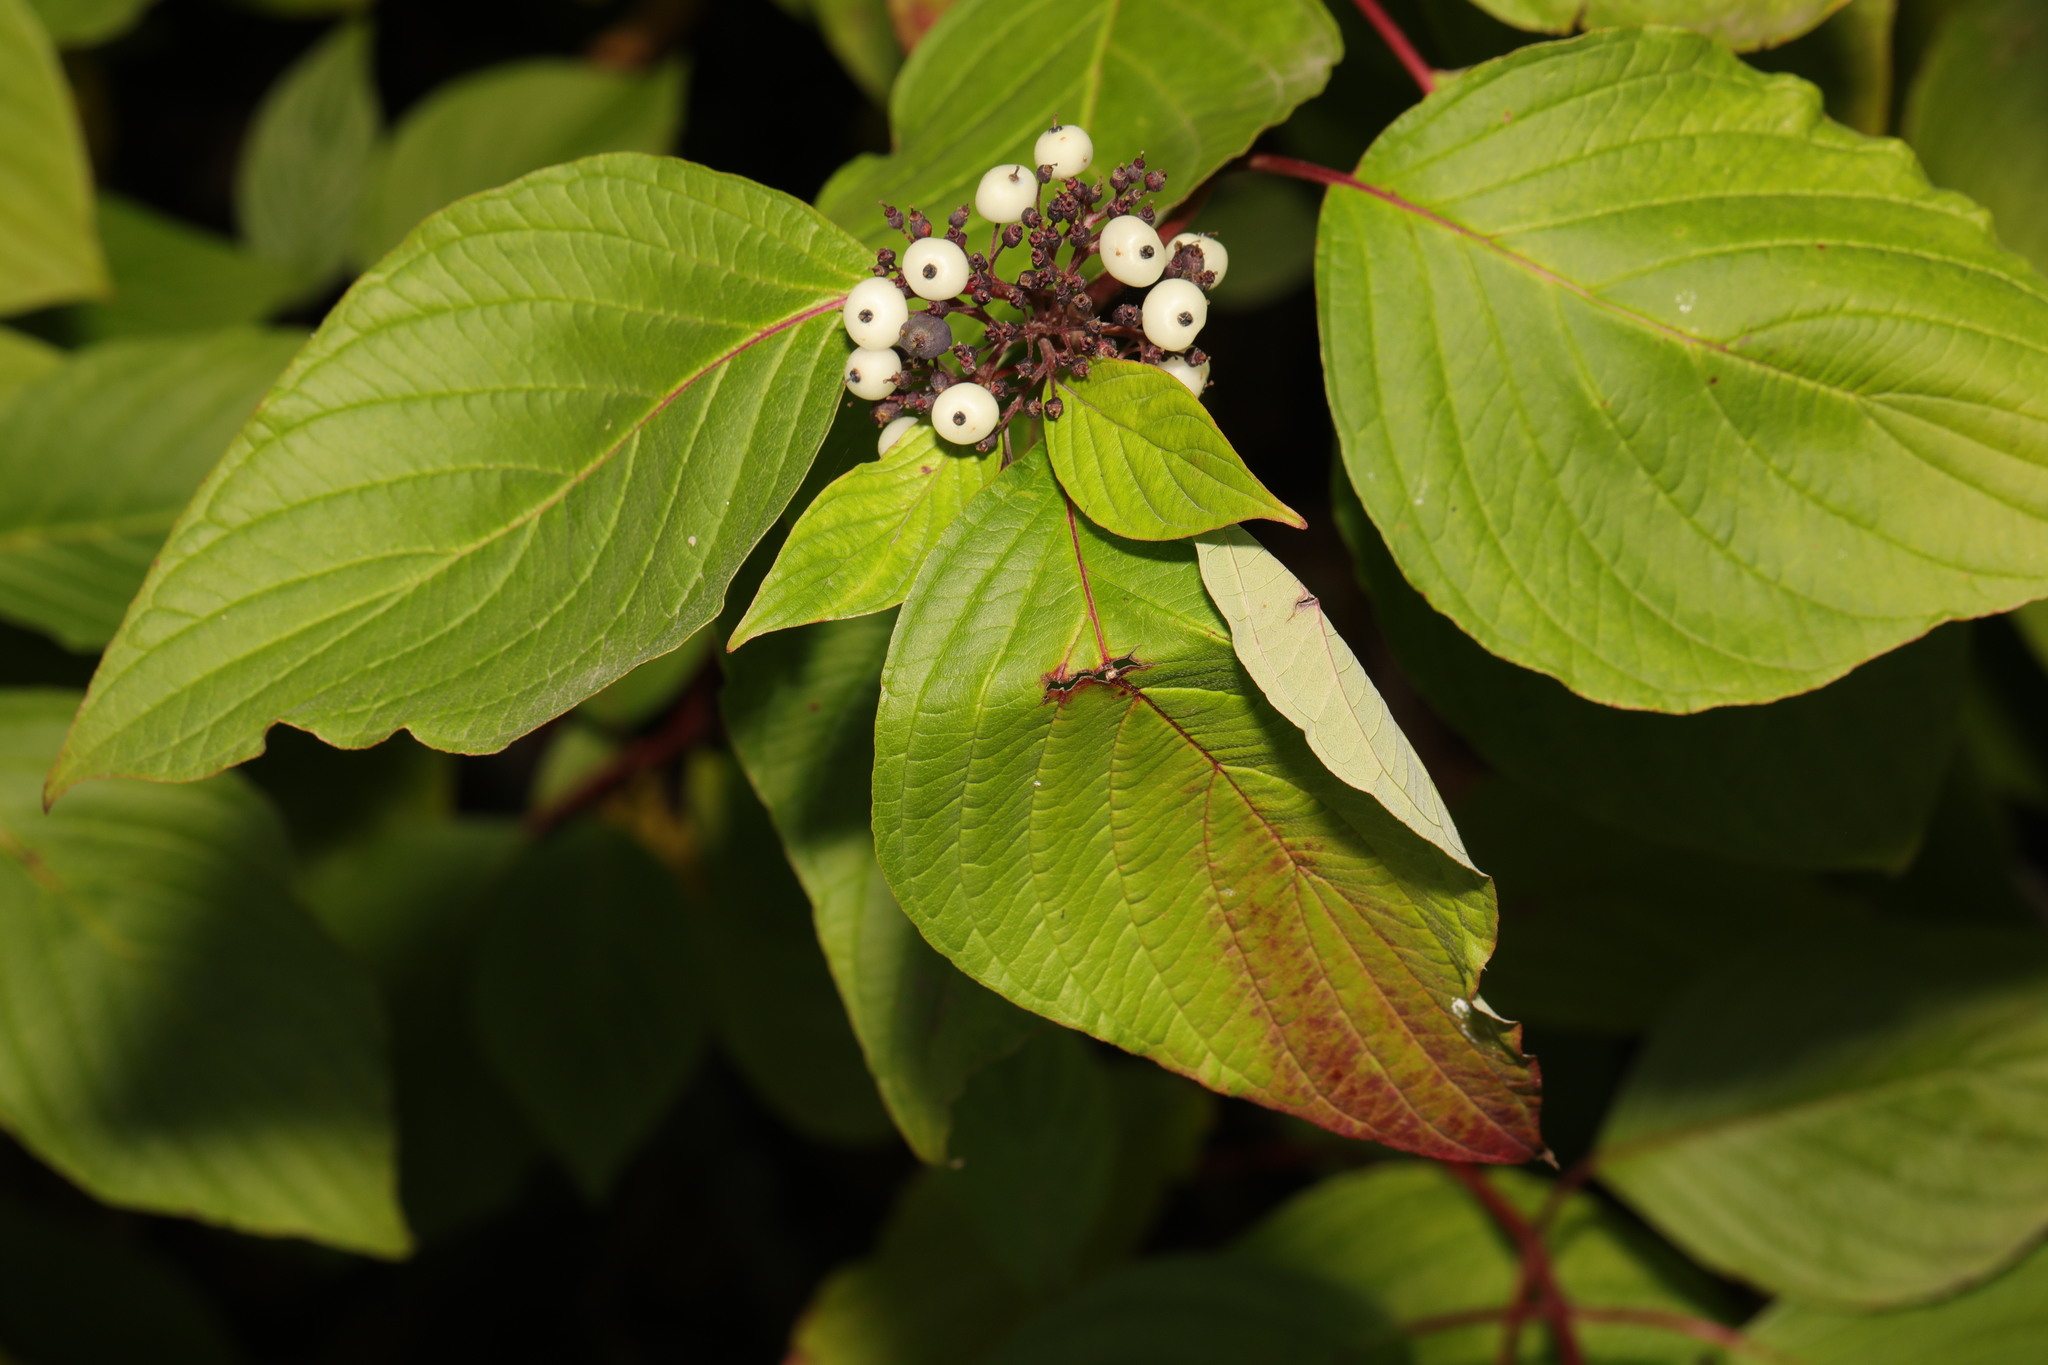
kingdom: Plantae
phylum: Tracheophyta
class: Magnoliopsida
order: Cornales
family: Cornaceae
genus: Cornus
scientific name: Cornus sericea
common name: Red-osier dogwood
